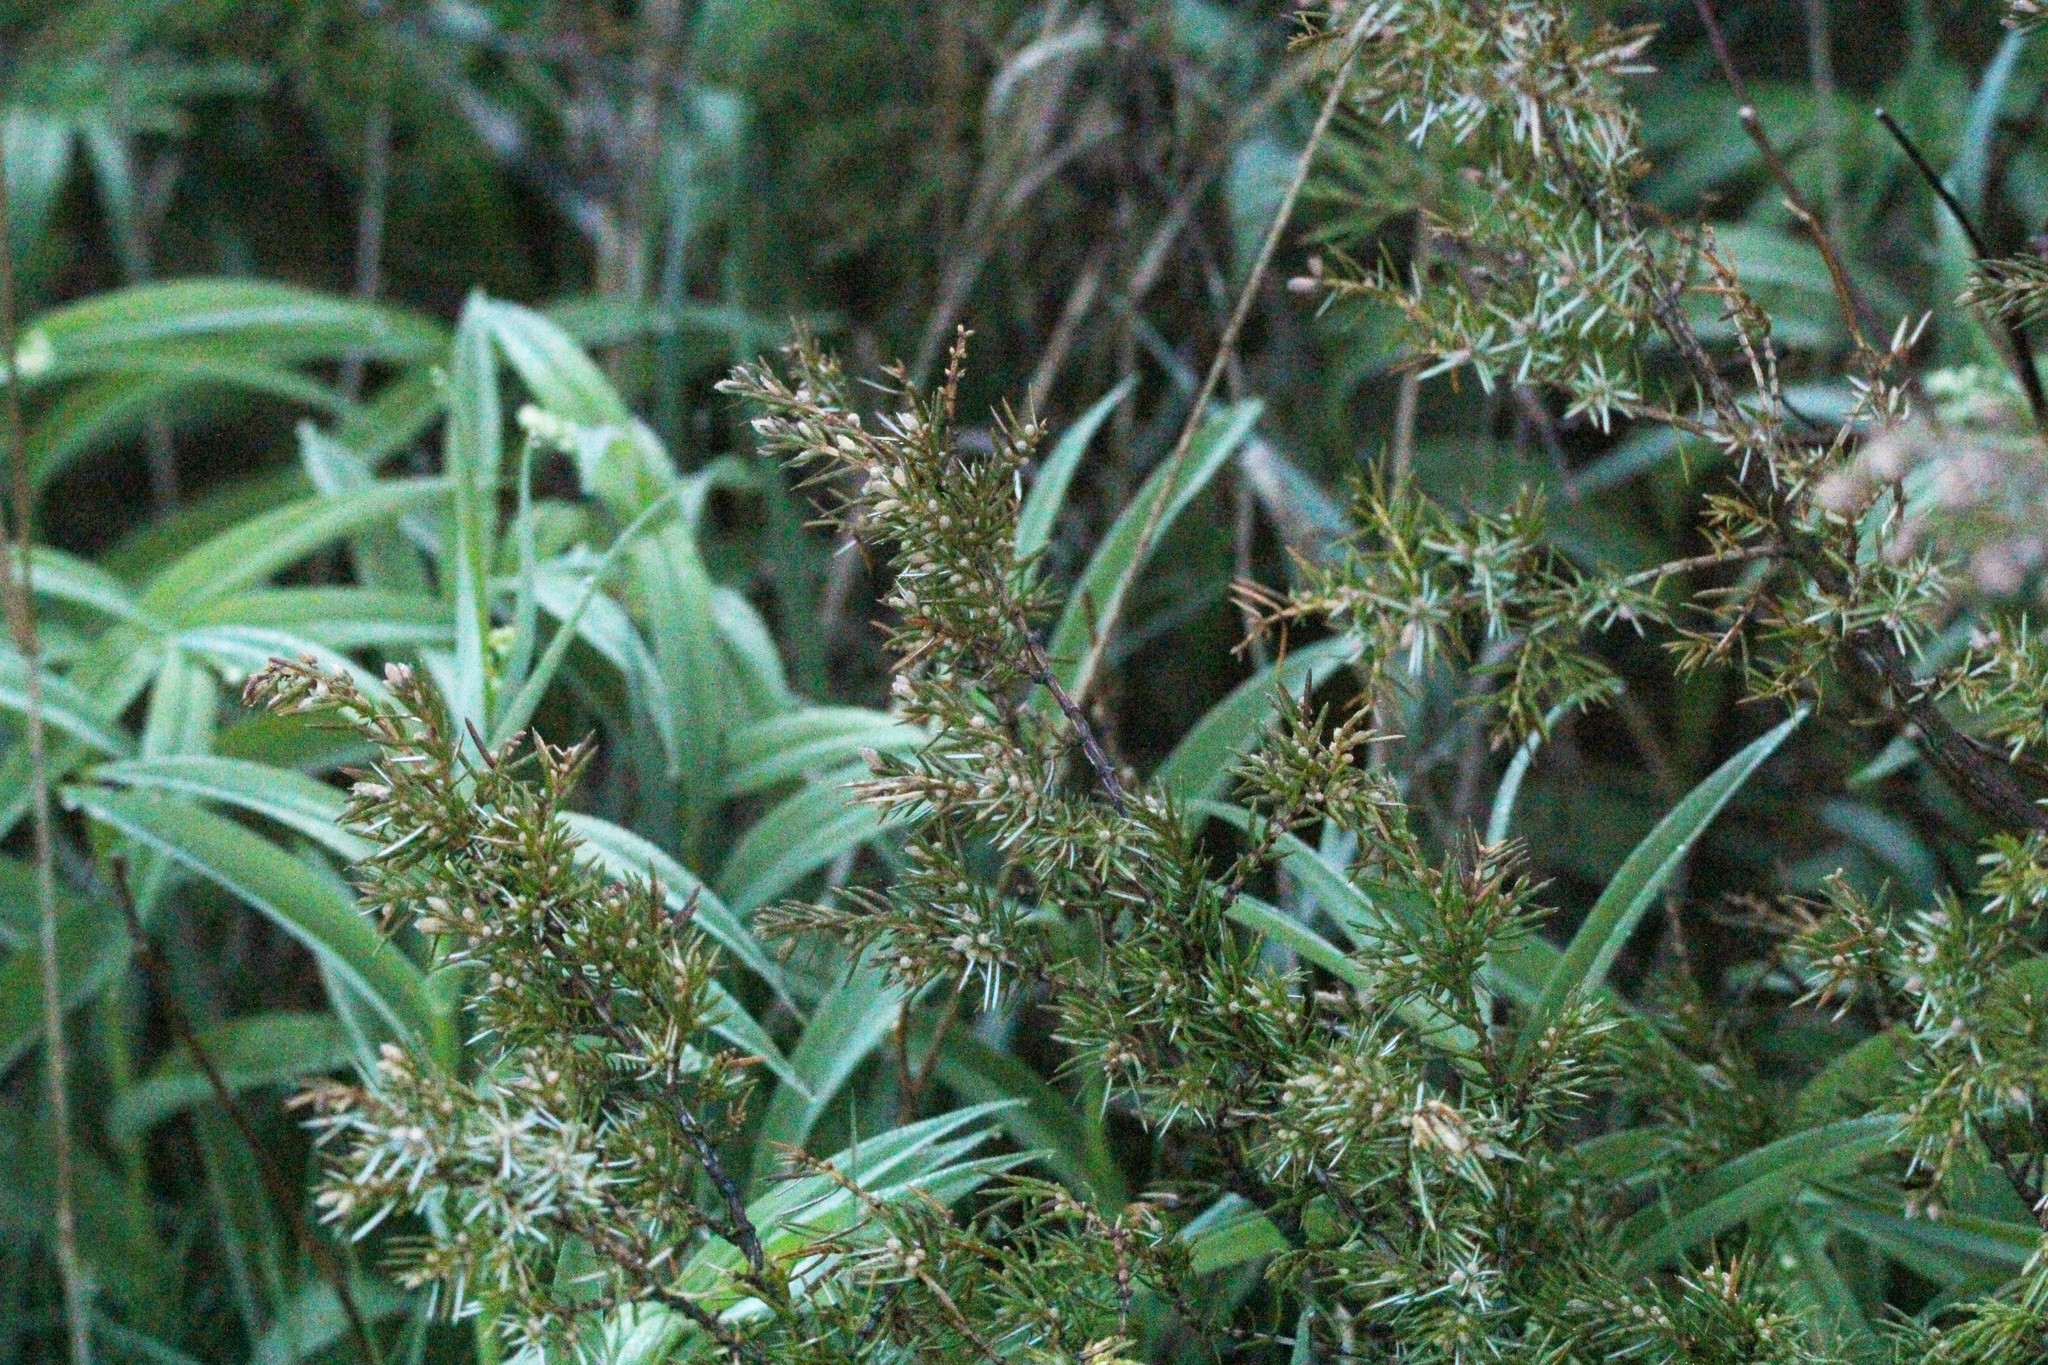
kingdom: Plantae
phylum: Tracheophyta
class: Pinopsida
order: Pinales
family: Cupressaceae
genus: Juniperus
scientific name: Juniperus communis
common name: Common juniper
